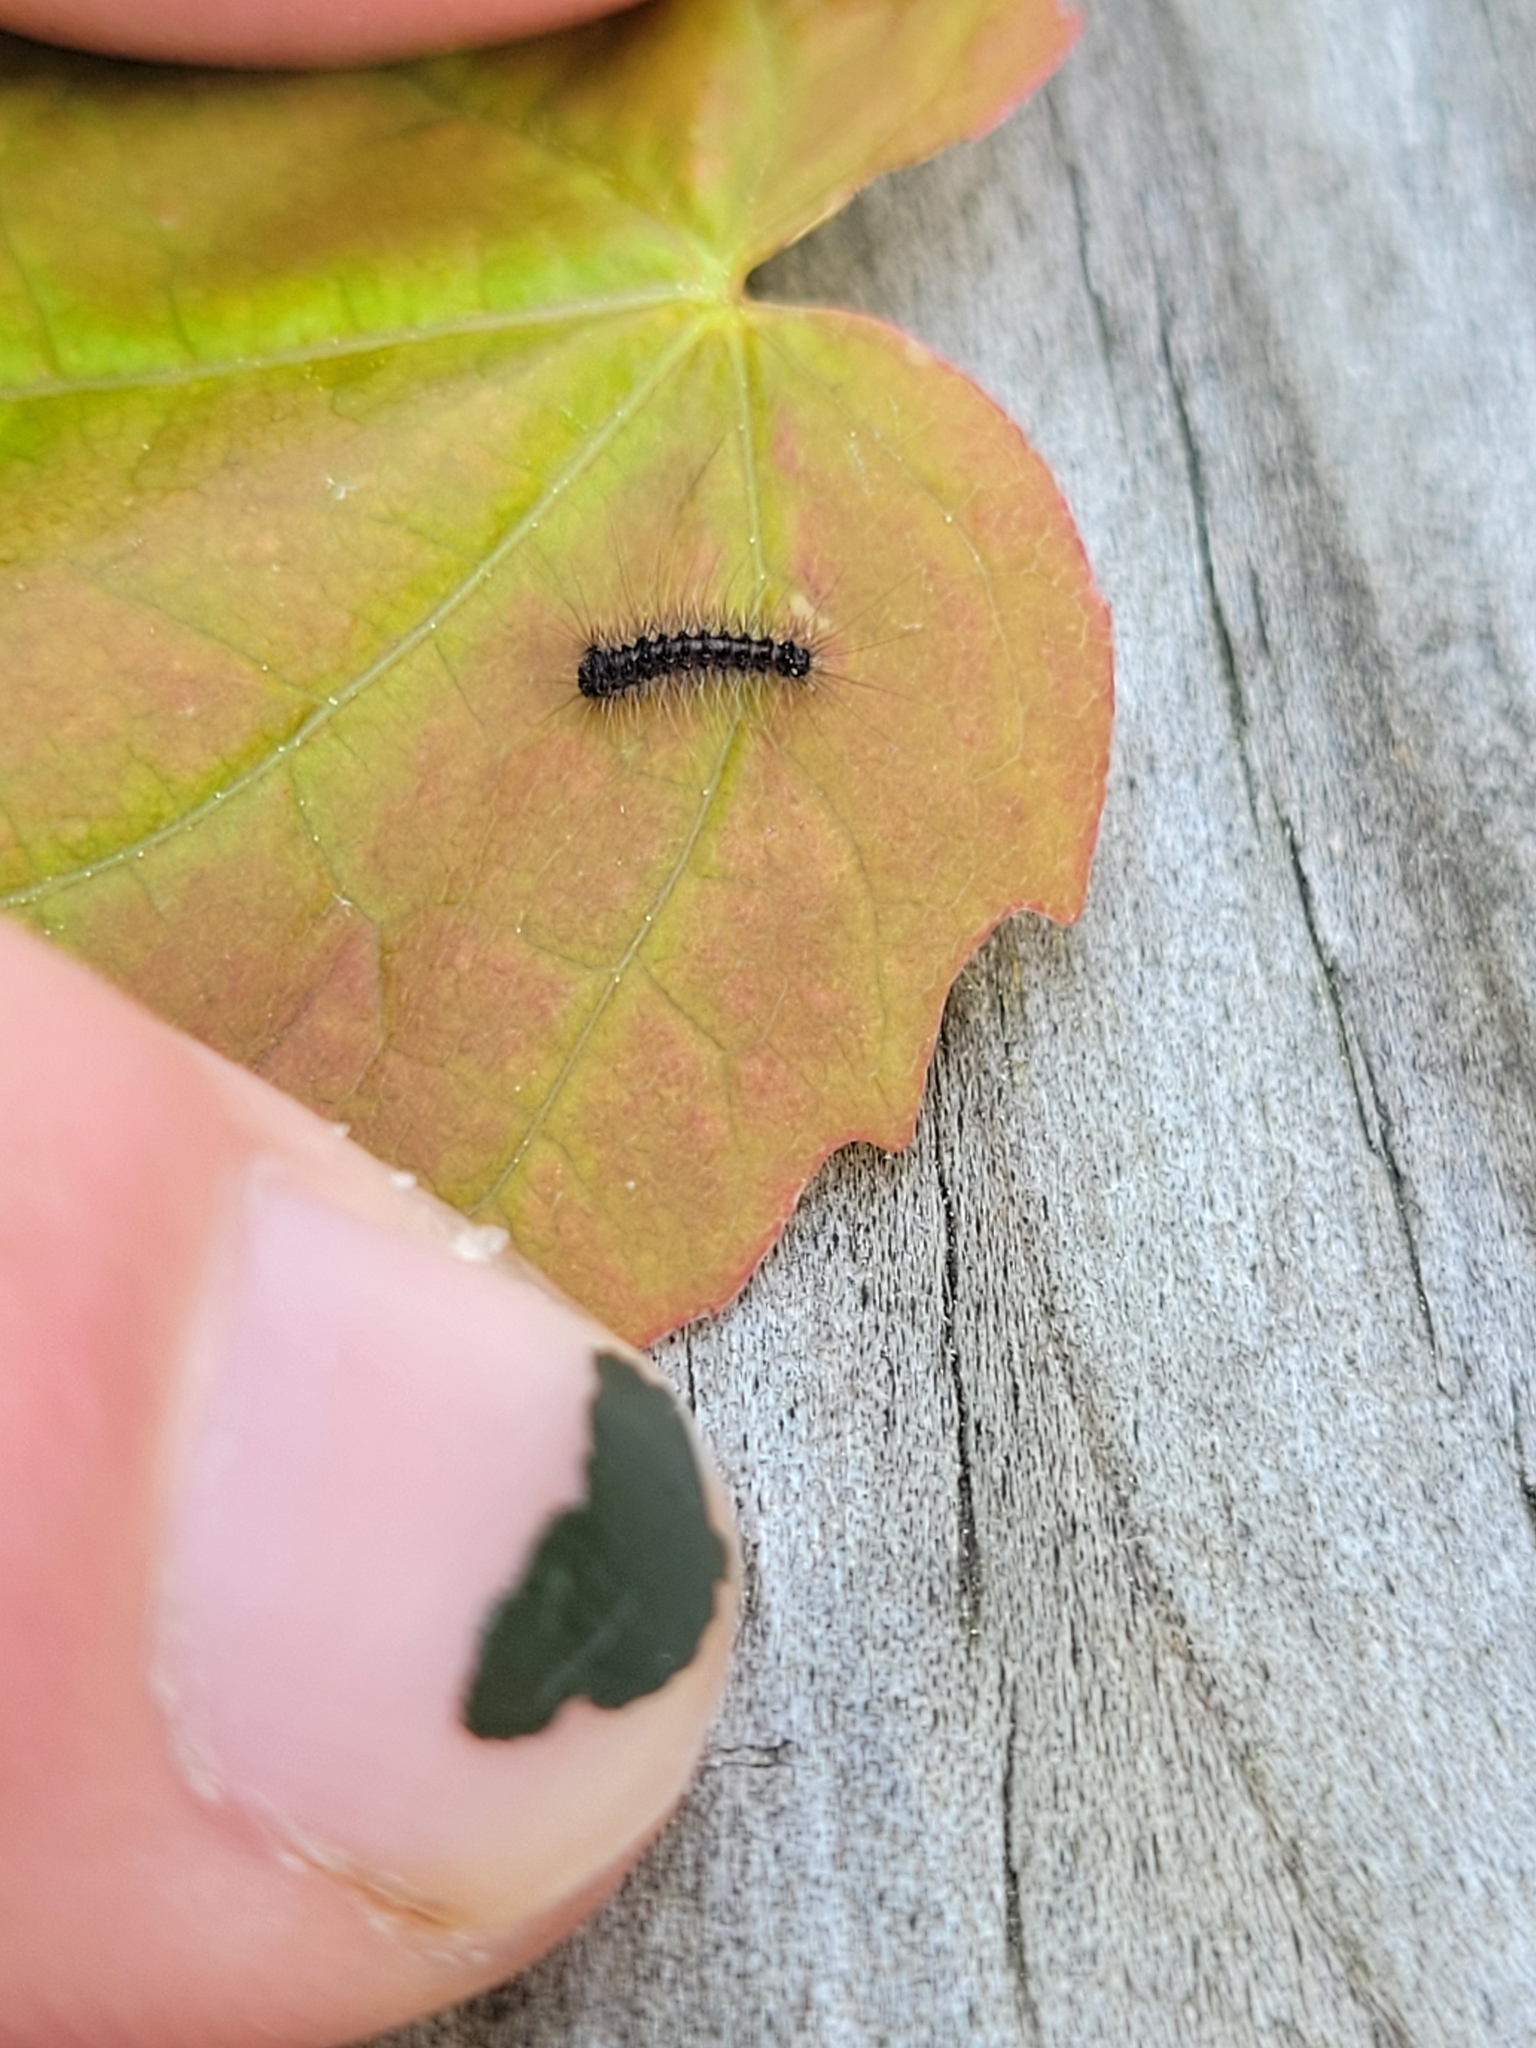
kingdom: Animalia
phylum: Arthropoda
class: Insecta
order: Lepidoptera
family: Erebidae
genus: Lymantria
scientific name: Lymantria dispar
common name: Gypsy moth
